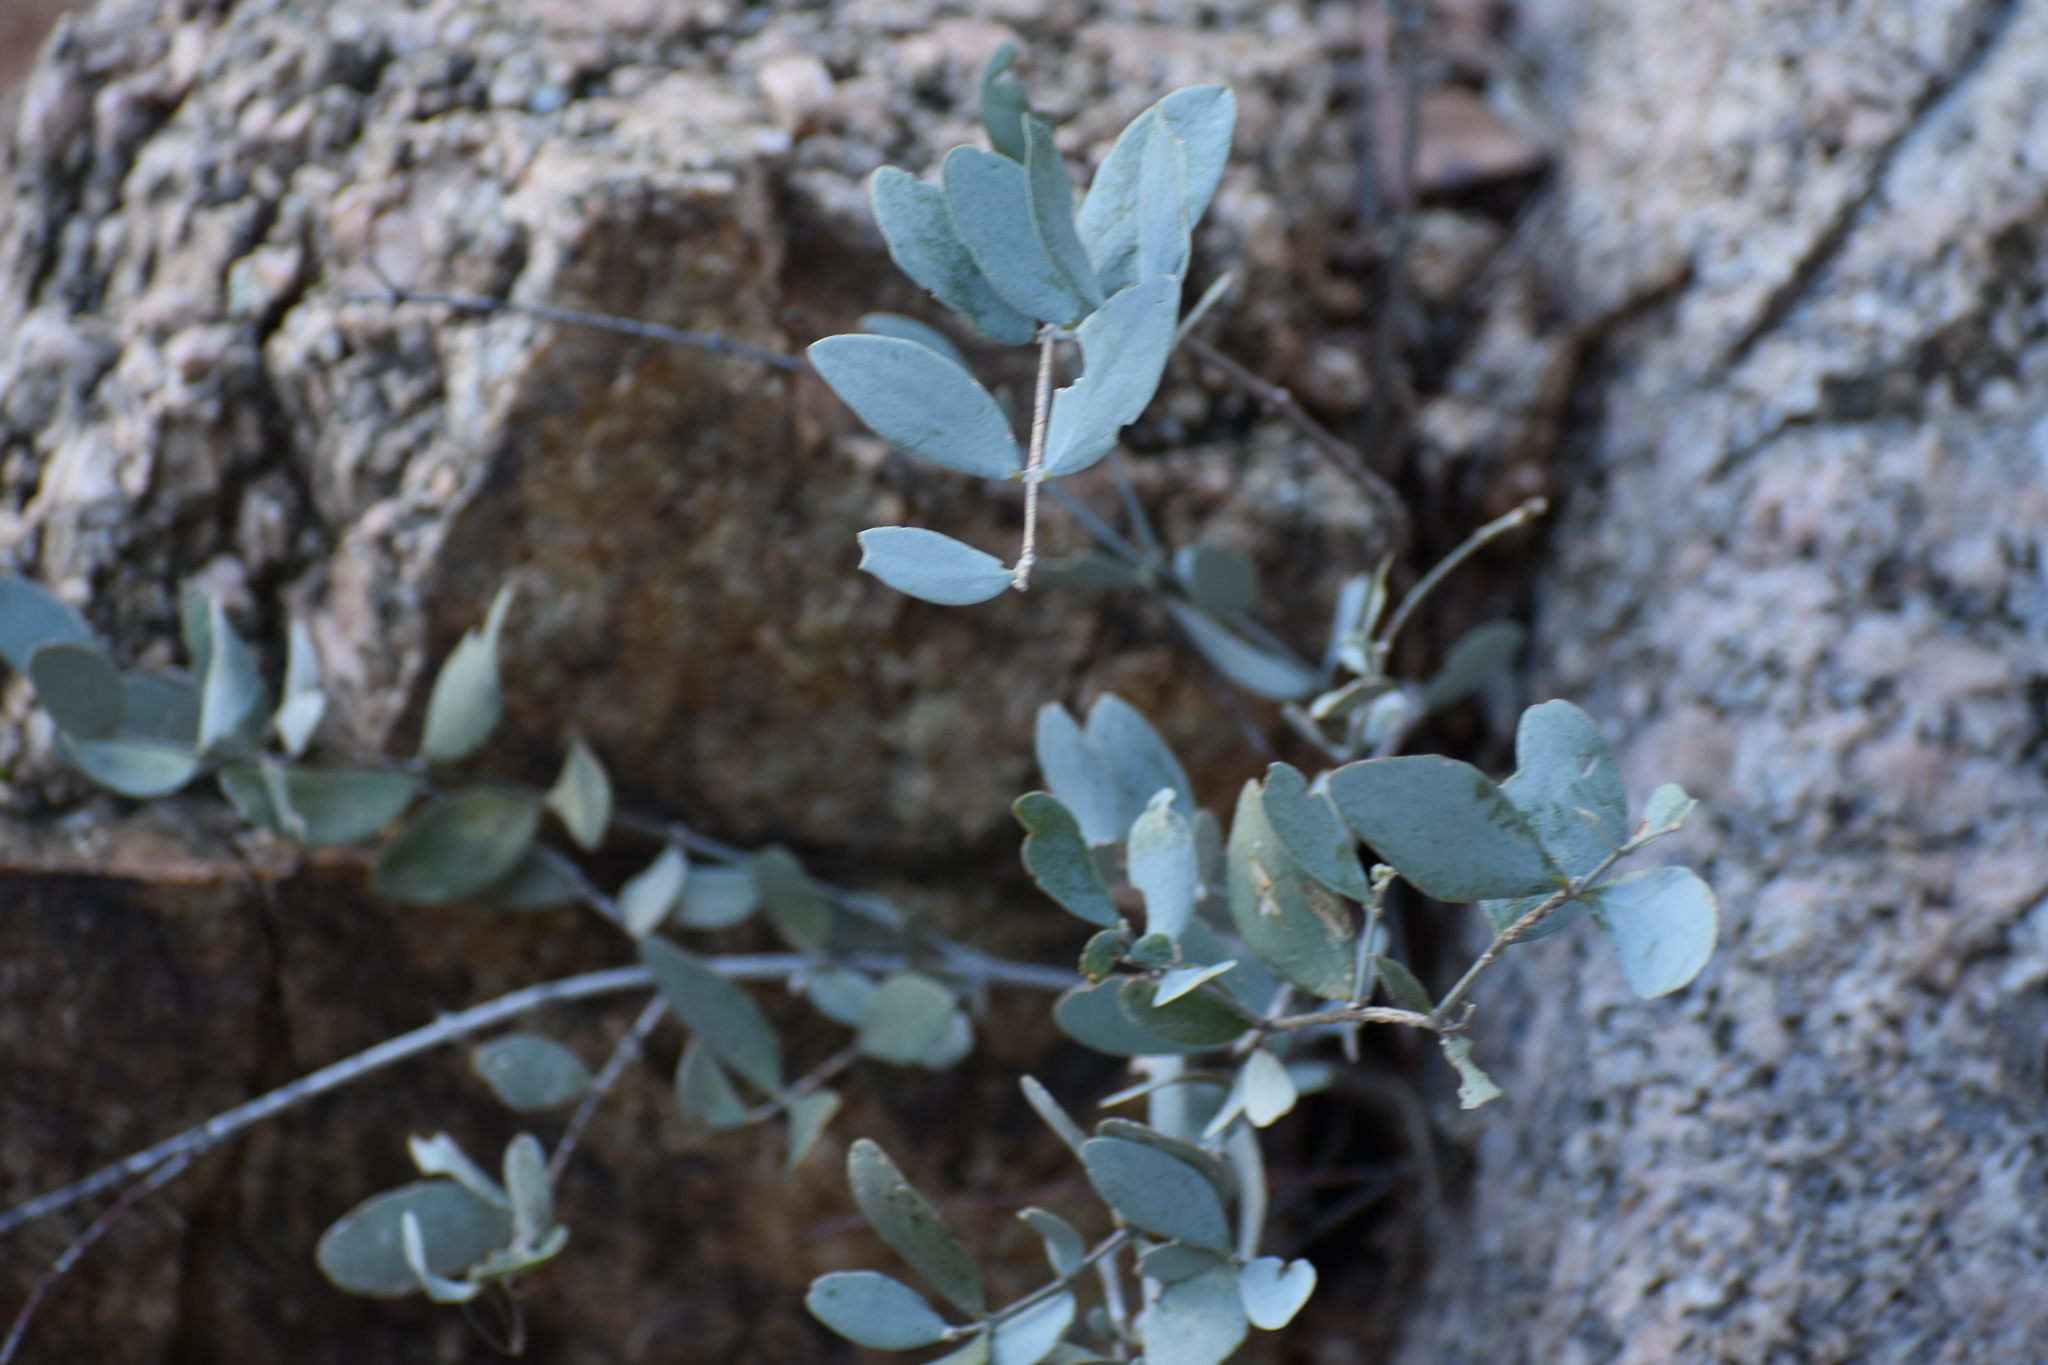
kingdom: Plantae
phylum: Tracheophyta
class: Magnoliopsida
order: Caryophyllales
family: Simmondsiaceae
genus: Simmondsia
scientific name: Simmondsia chinensis
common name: Jojoba
